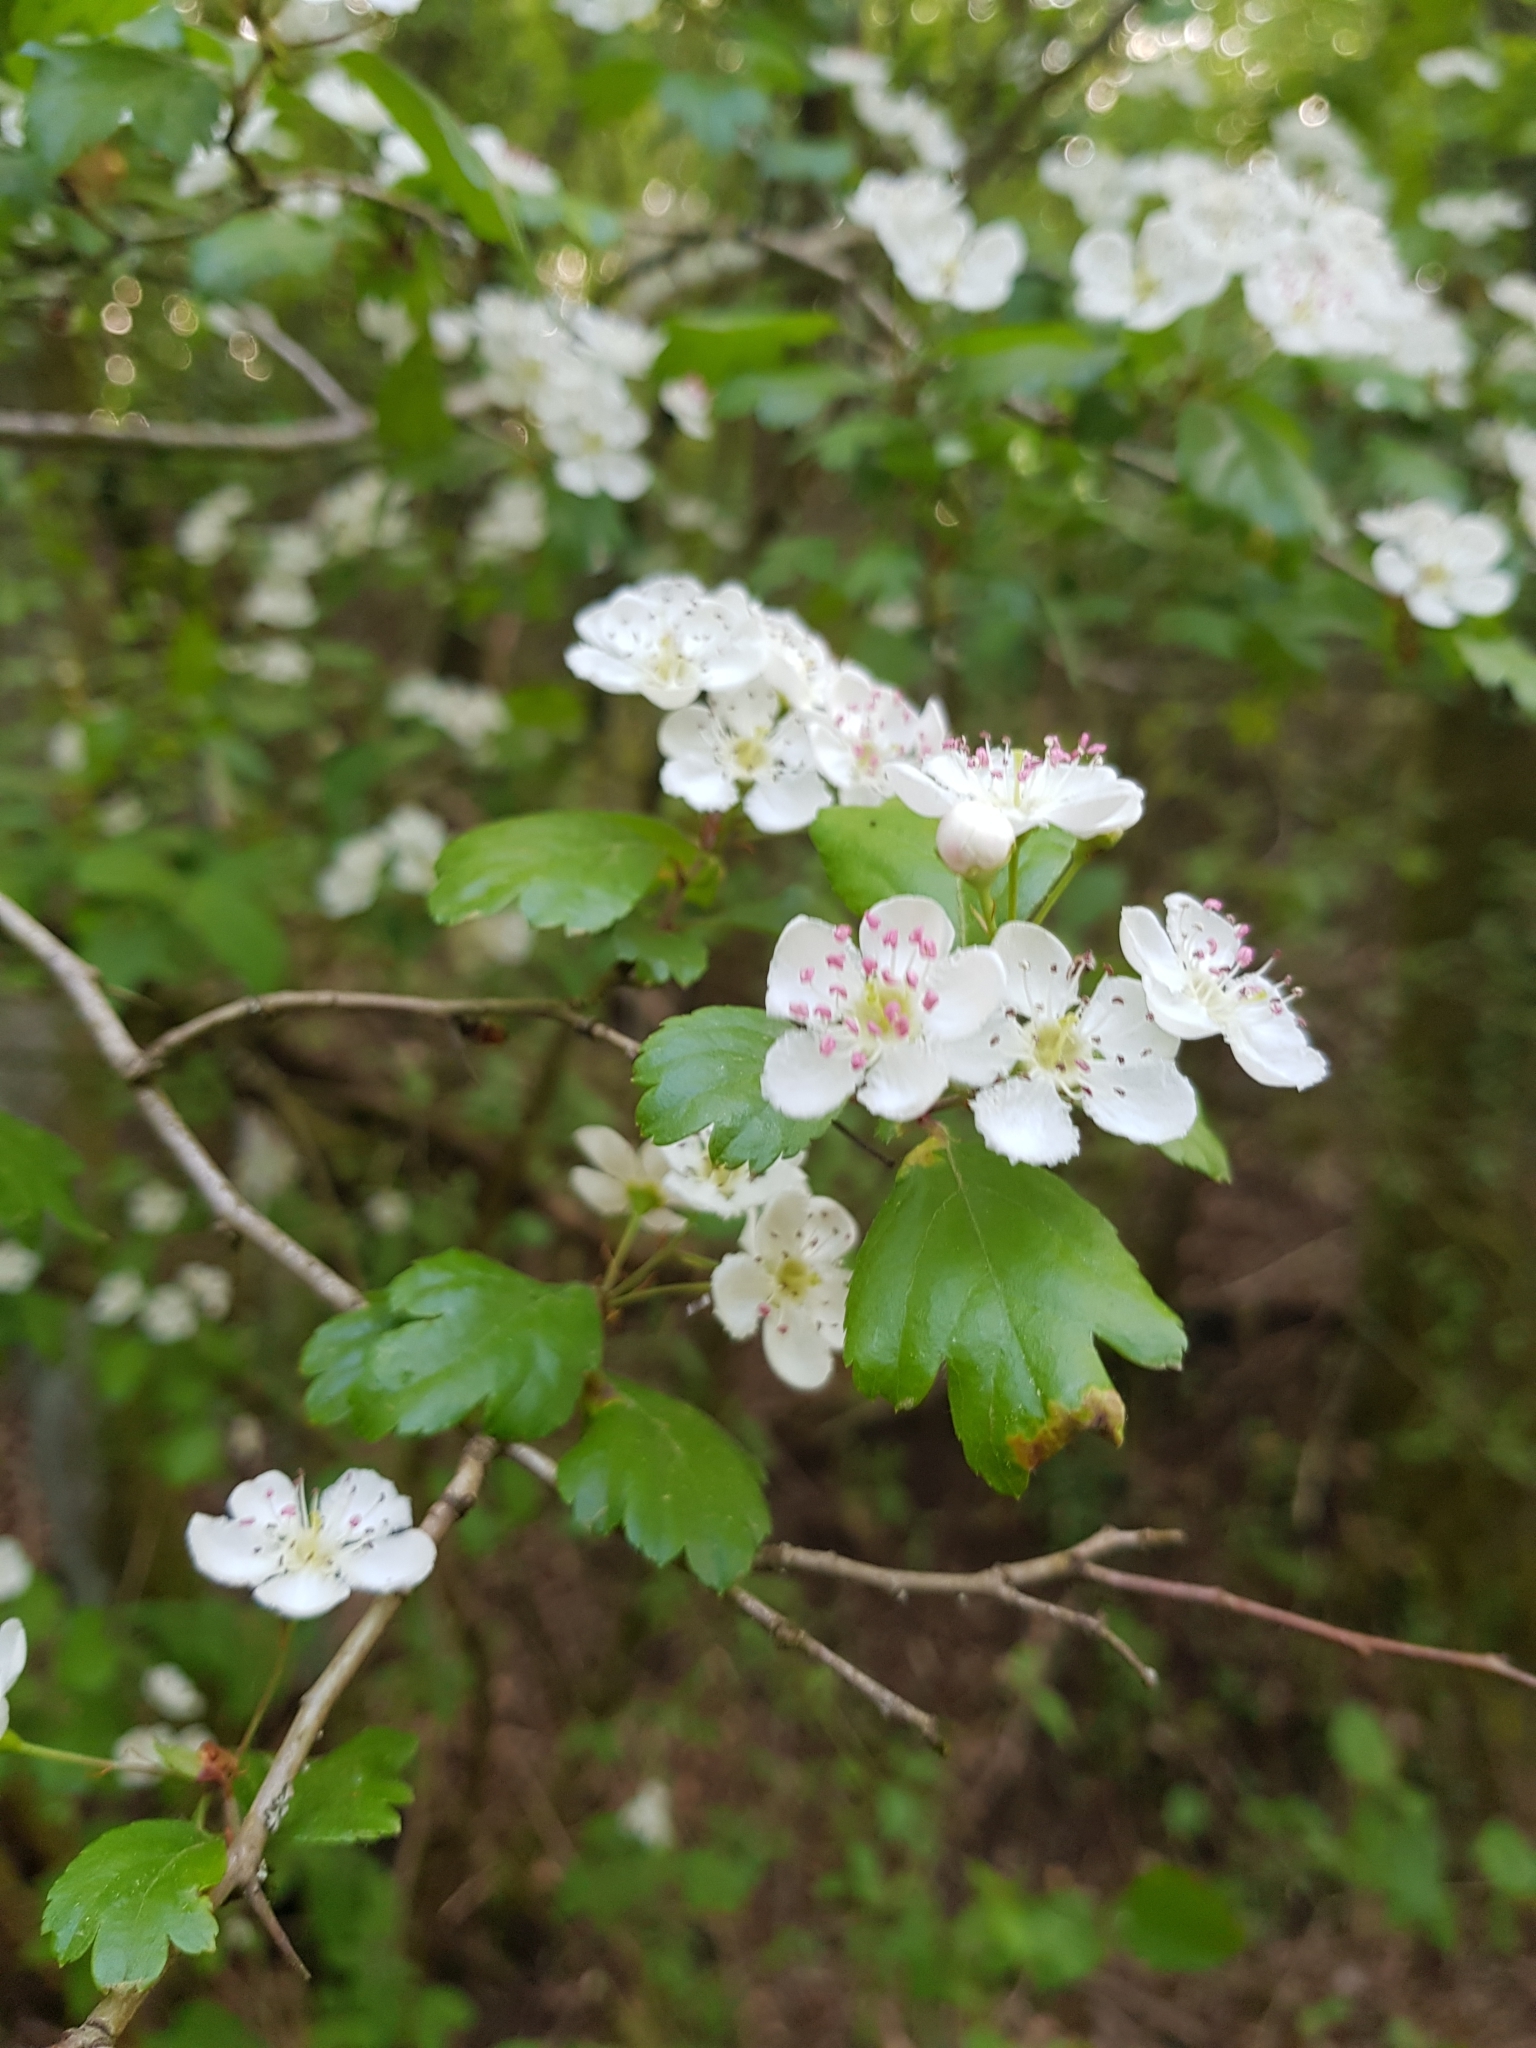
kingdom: Plantae
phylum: Tracheophyta
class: Magnoliopsida
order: Rosales
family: Rosaceae
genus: Crataegus
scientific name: Crataegus monogyna
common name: Hawthorn
